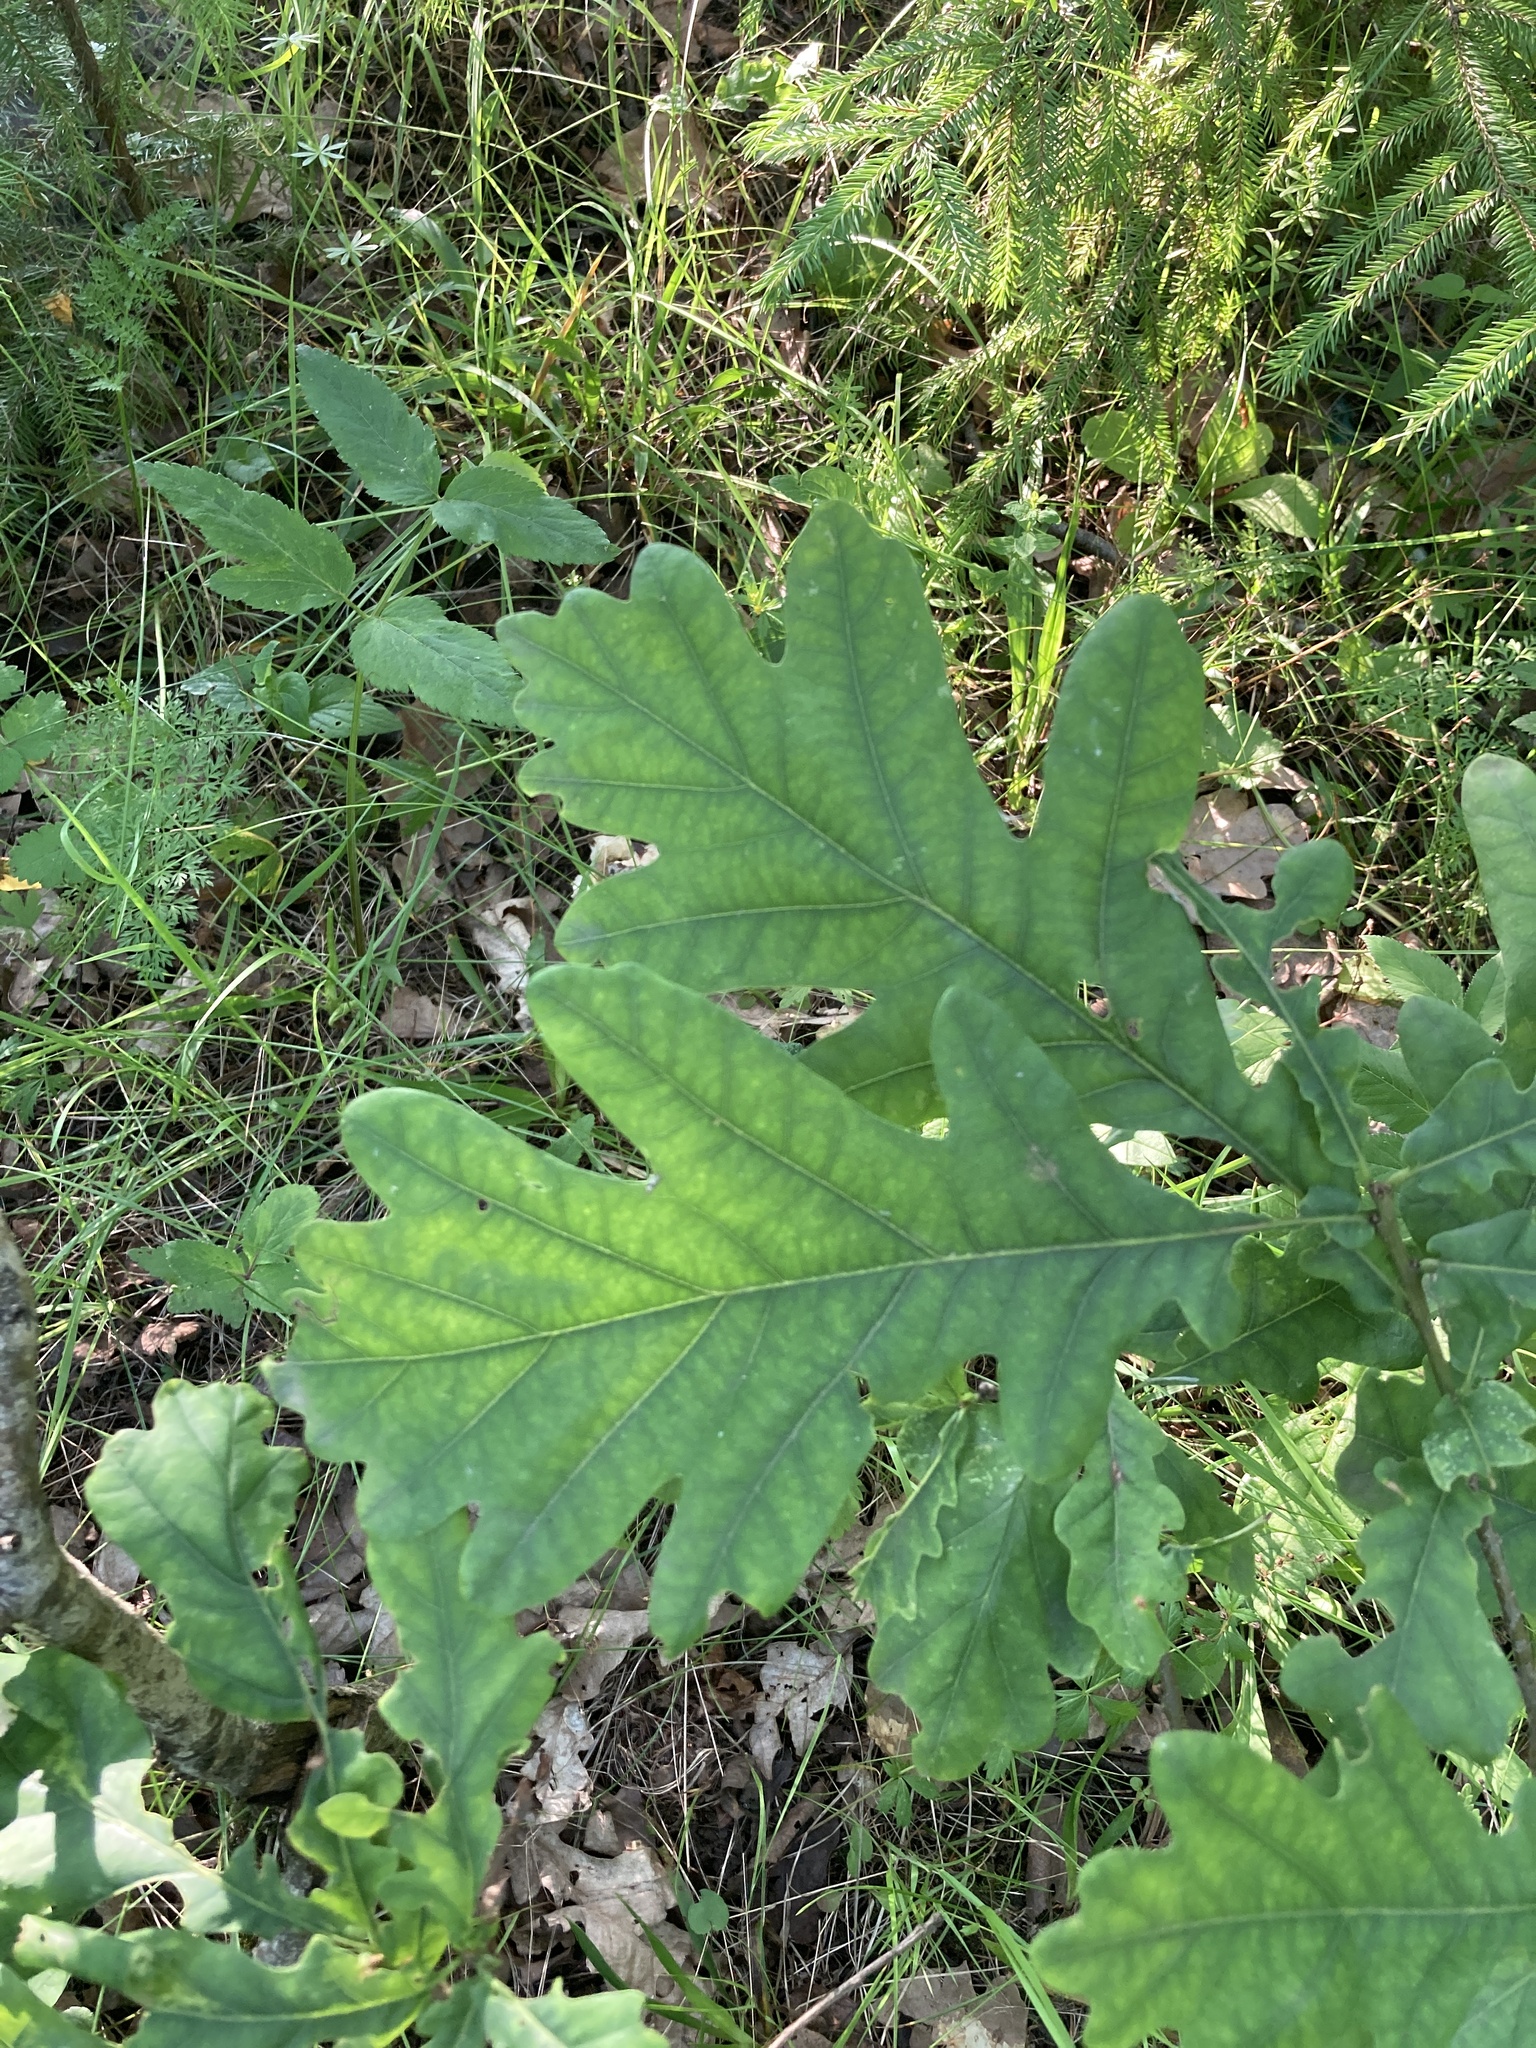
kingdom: Plantae
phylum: Tracheophyta
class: Magnoliopsida
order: Fagales
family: Fagaceae
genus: Quercus
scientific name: Quercus robur
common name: Pedunculate oak
